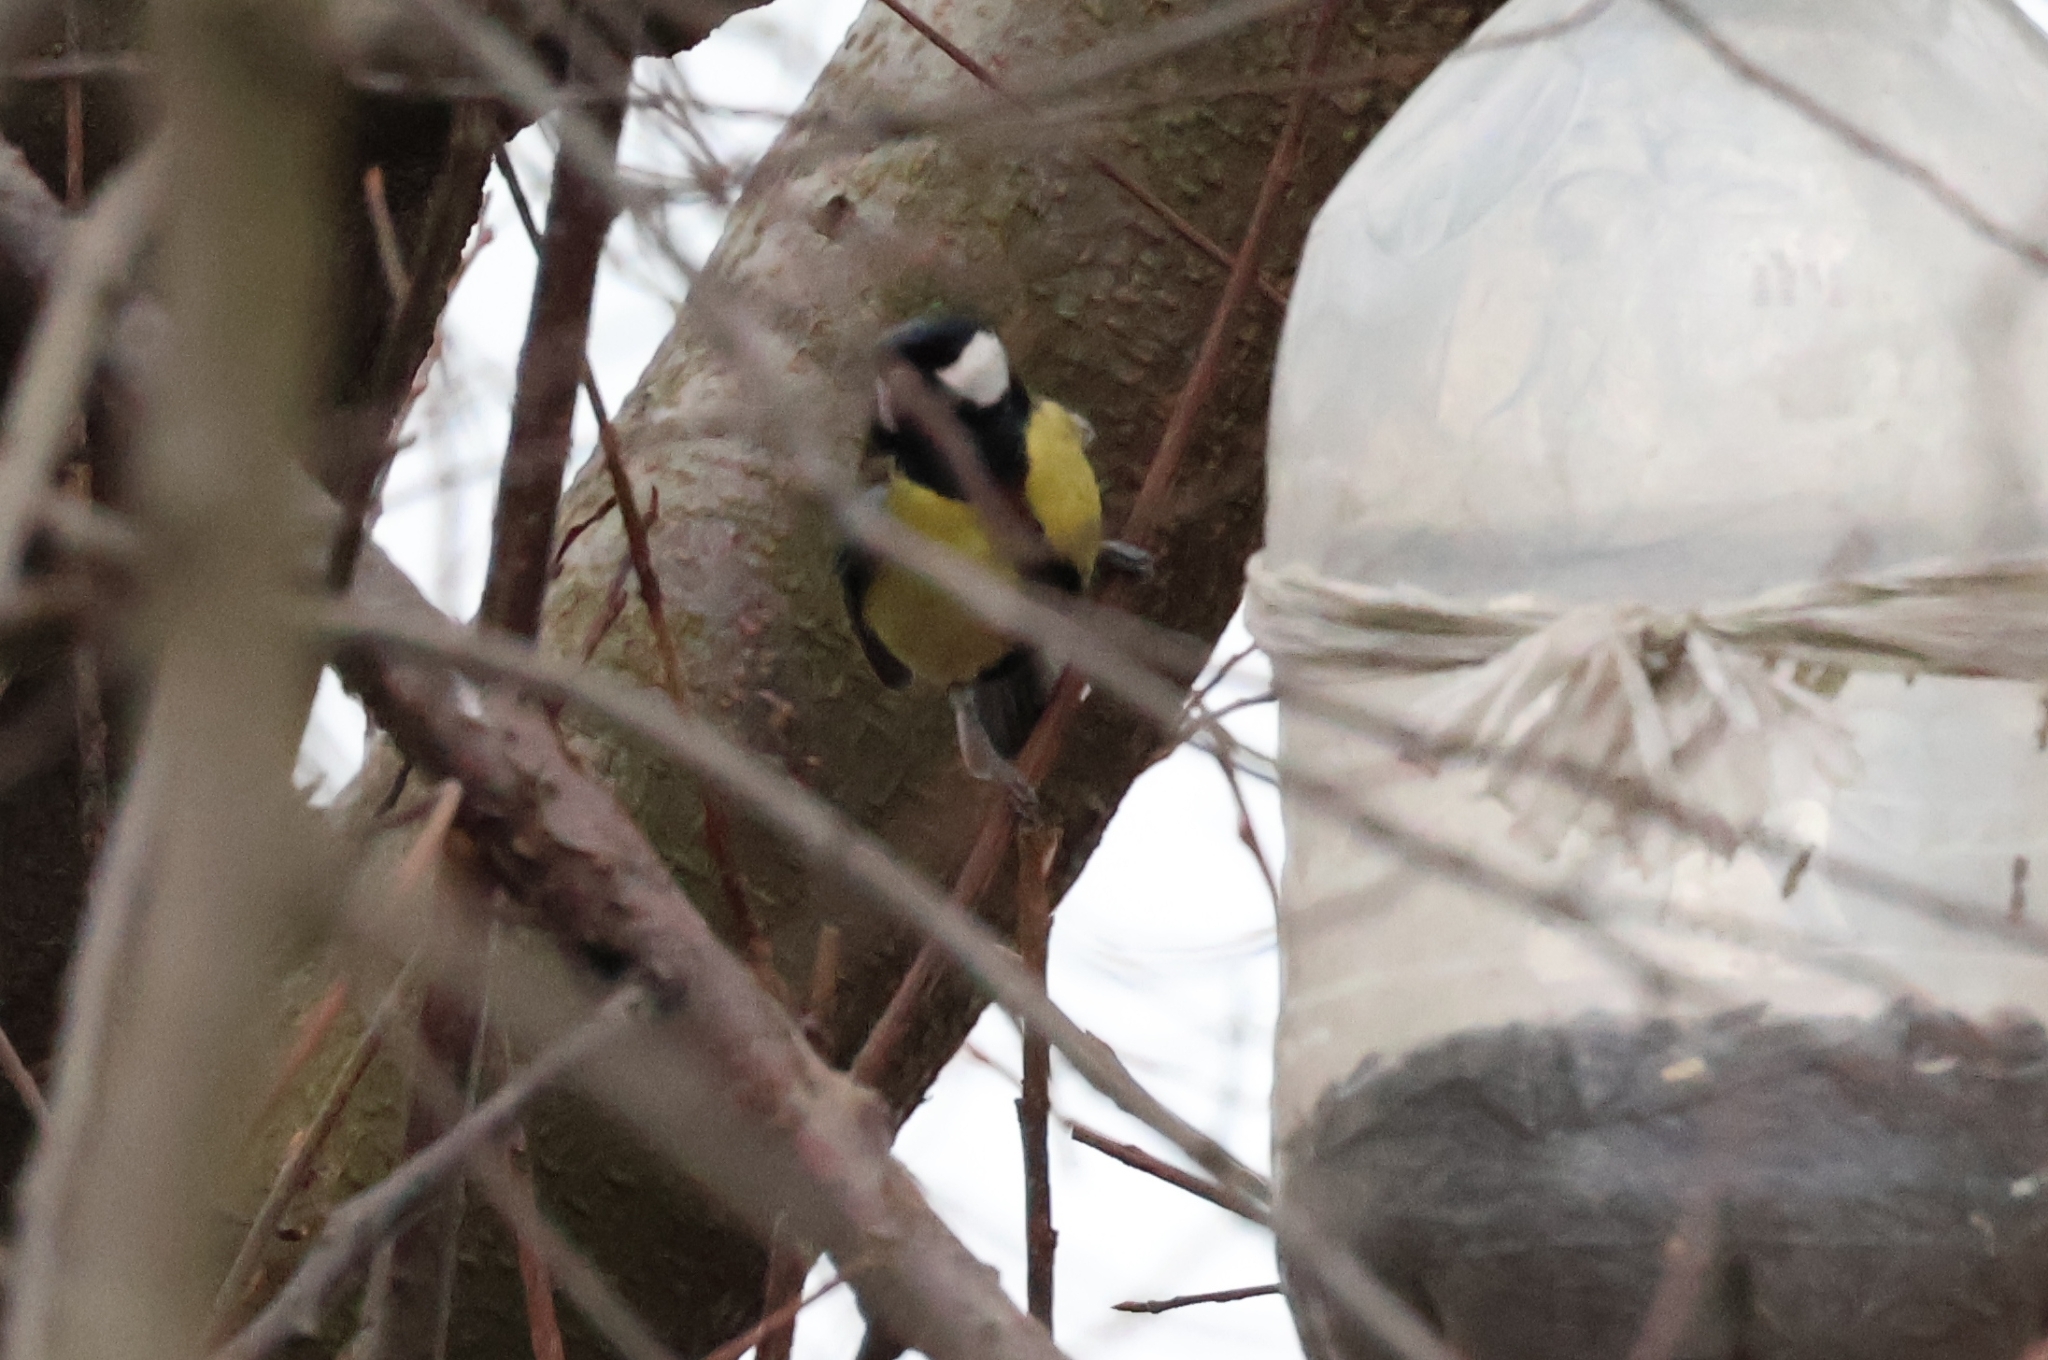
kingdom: Animalia
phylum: Chordata
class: Aves
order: Passeriformes
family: Paridae
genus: Parus
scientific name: Parus major
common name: Great tit
